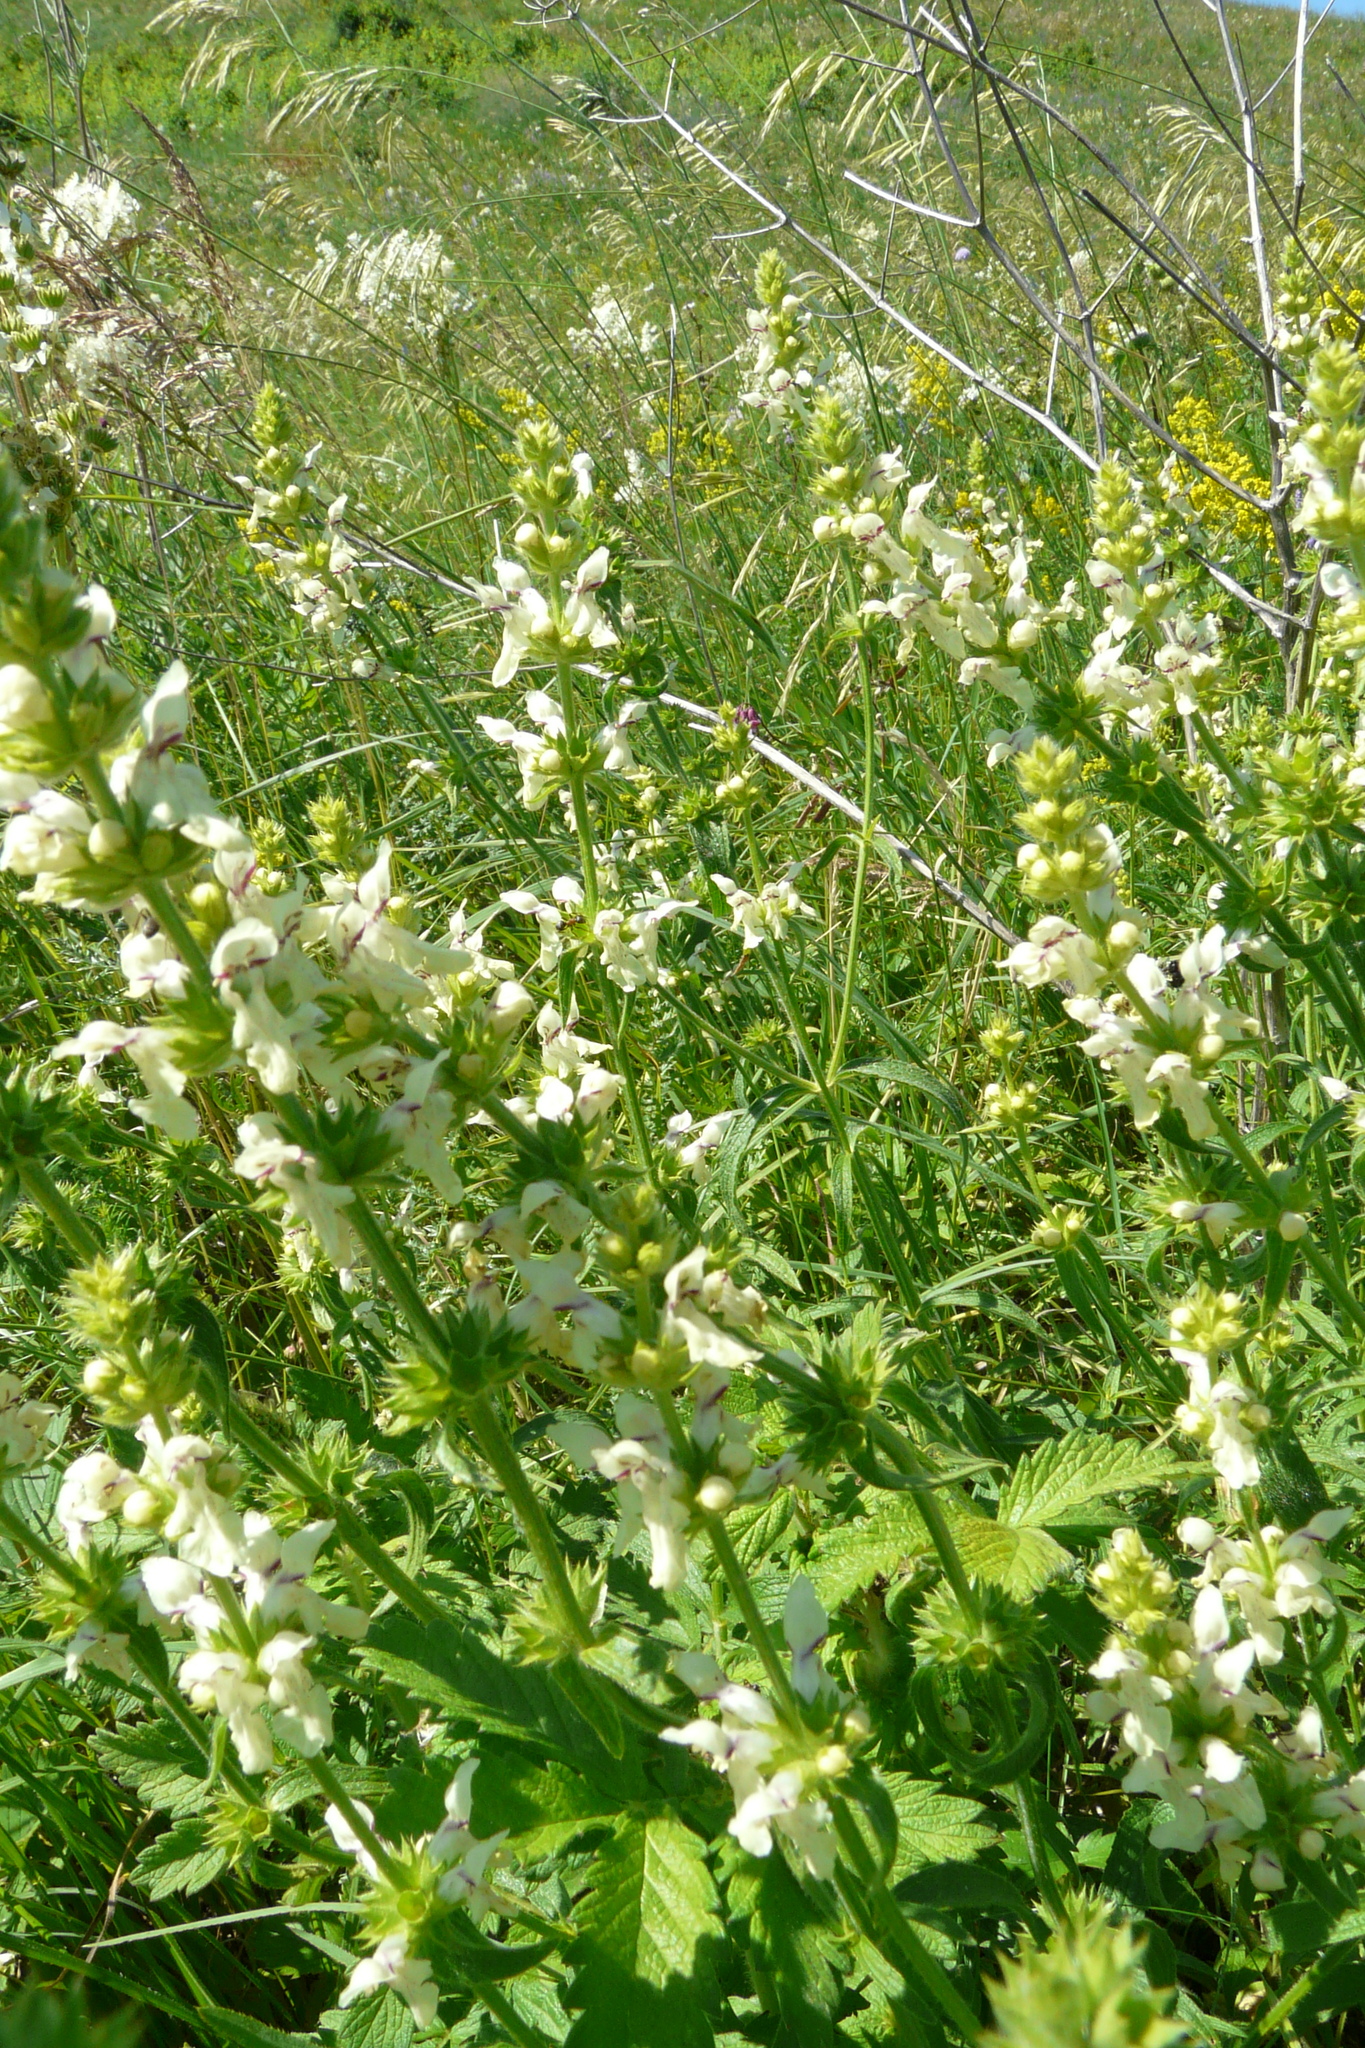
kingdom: Plantae
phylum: Tracheophyta
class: Magnoliopsida
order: Lamiales
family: Lamiaceae
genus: Stachys
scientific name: Stachys recta
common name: Perennial yellow-woundwort
